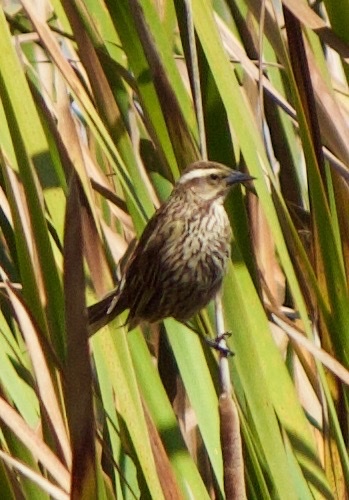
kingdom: Animalia
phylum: Chordata
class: Aves
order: Passeriformes
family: Icteridae
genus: Agelasticus
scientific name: Agelasticus thilius
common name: Yellow-winged blackbird
